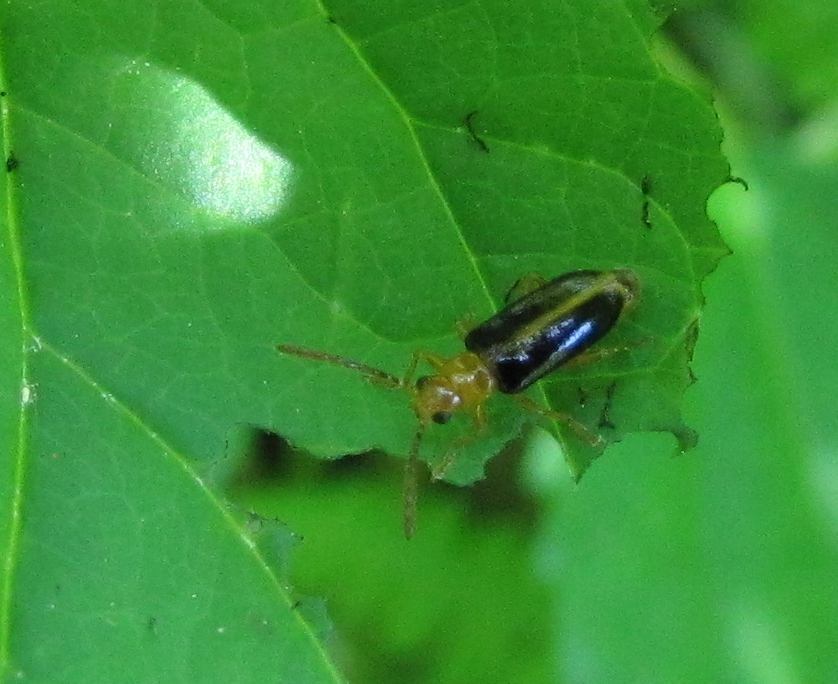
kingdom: Animalia
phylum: Arthropoda
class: Insecta
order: Coleoptera
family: Chrysomelidae
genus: Phyllobrotica
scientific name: Phyllobrotica limbata
